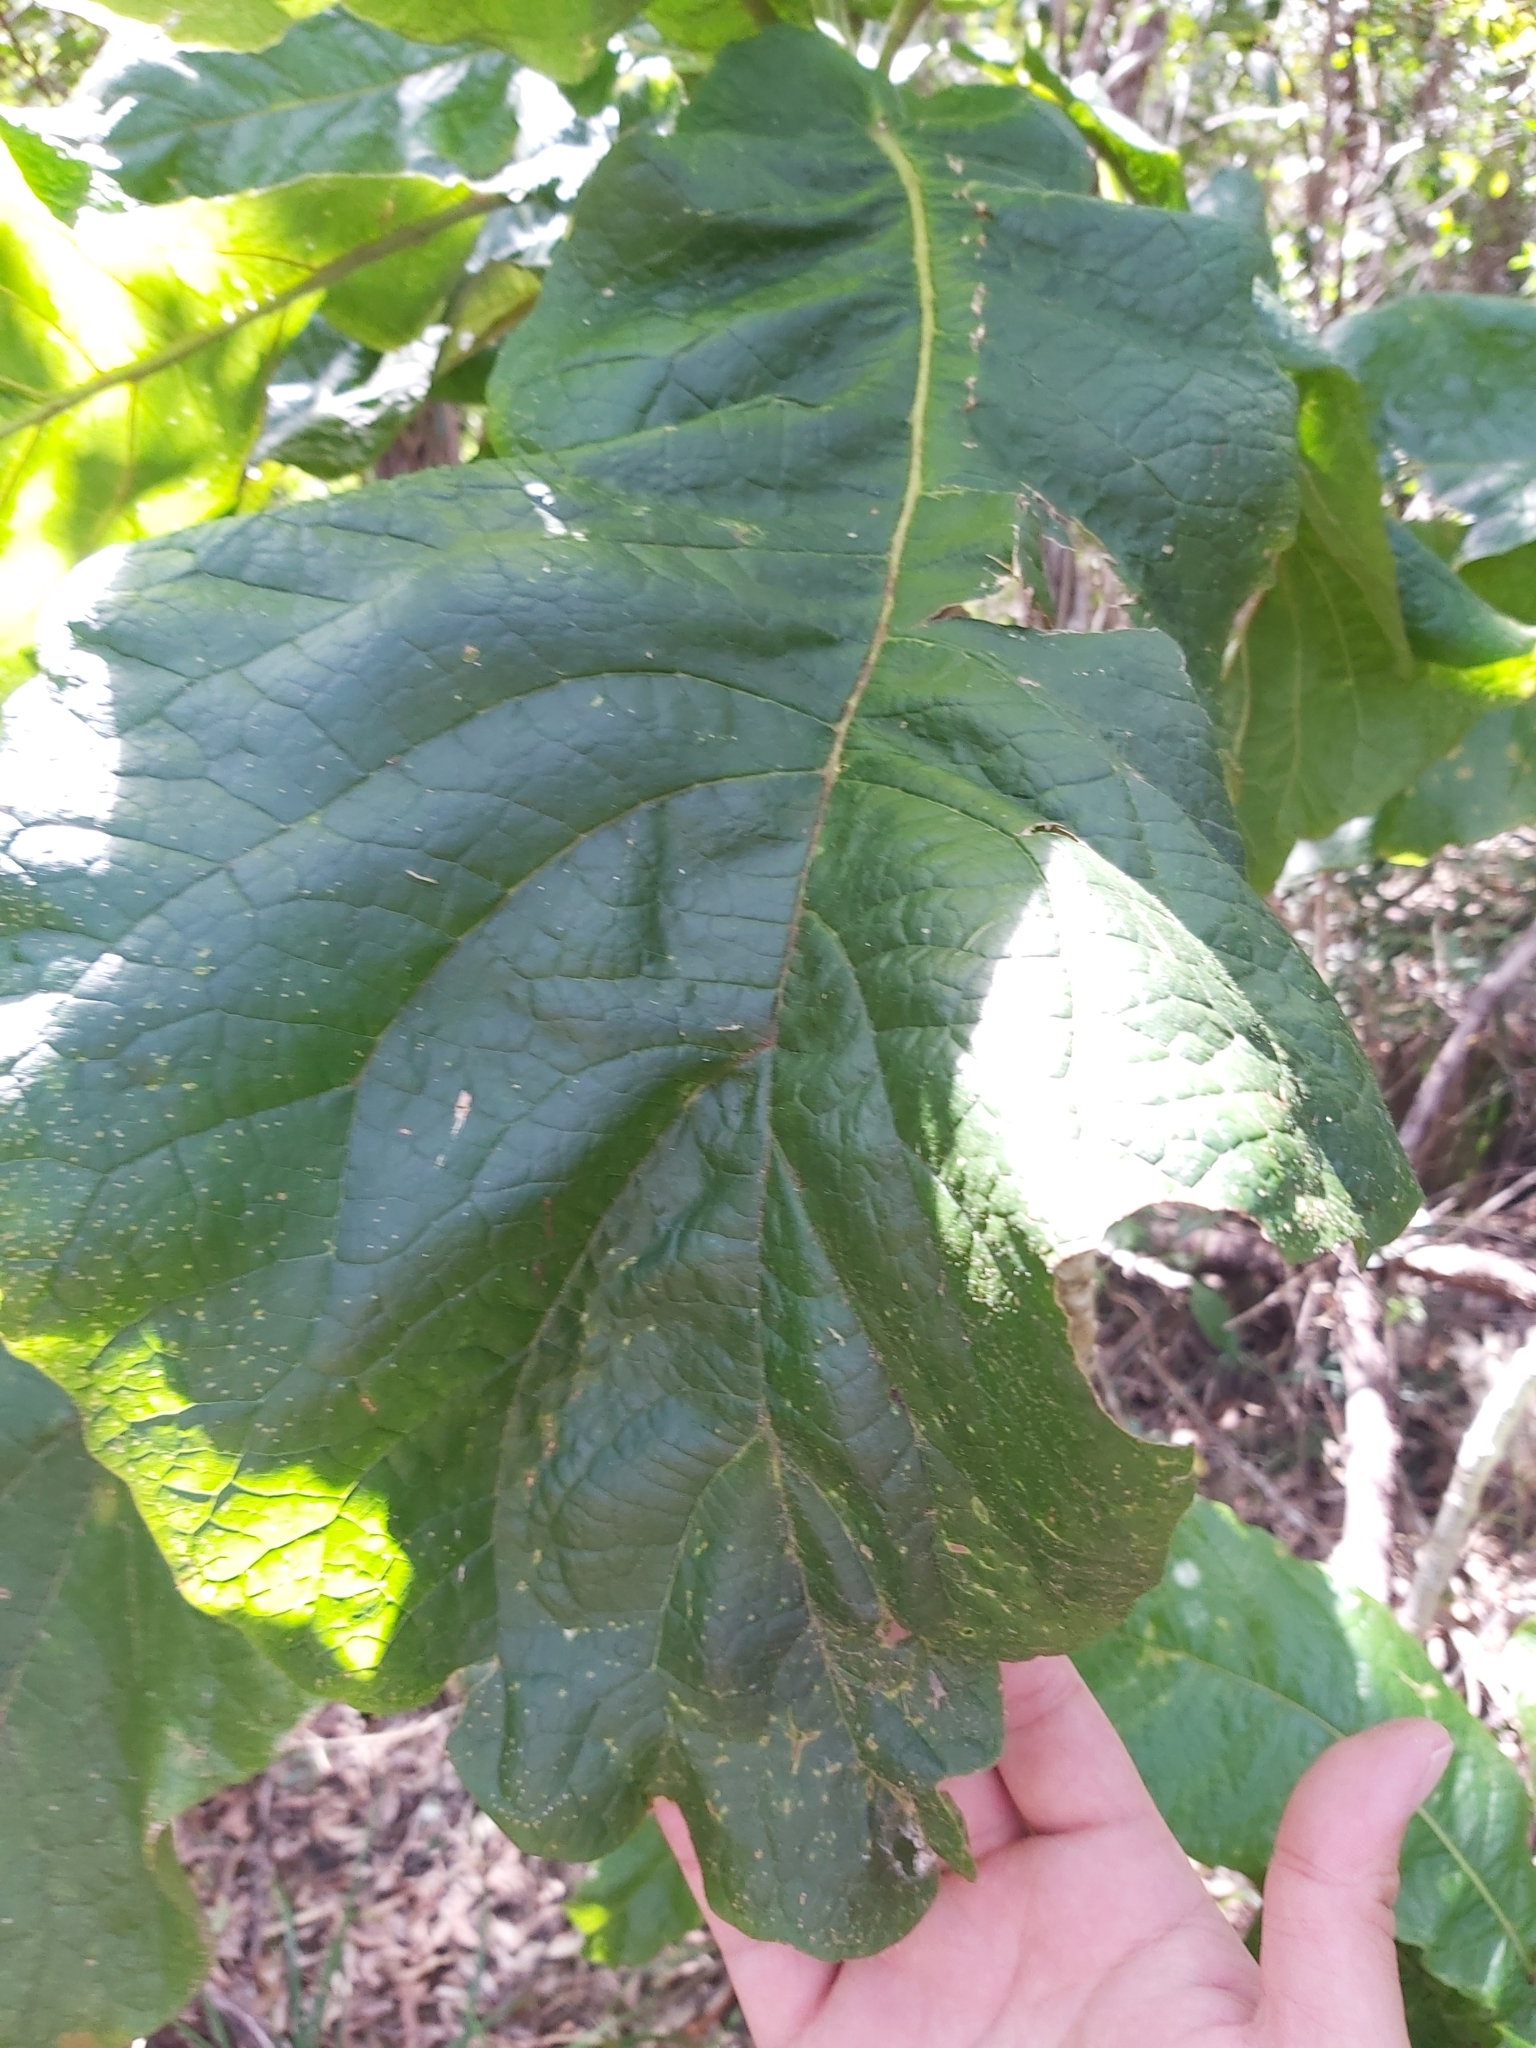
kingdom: Plantae
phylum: Tracheophyta
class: Magnoliopsida
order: Lamiales
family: Bignoniaceae
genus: Deplanchea
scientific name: Deplanchea tetraphylla
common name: Deplanchea
